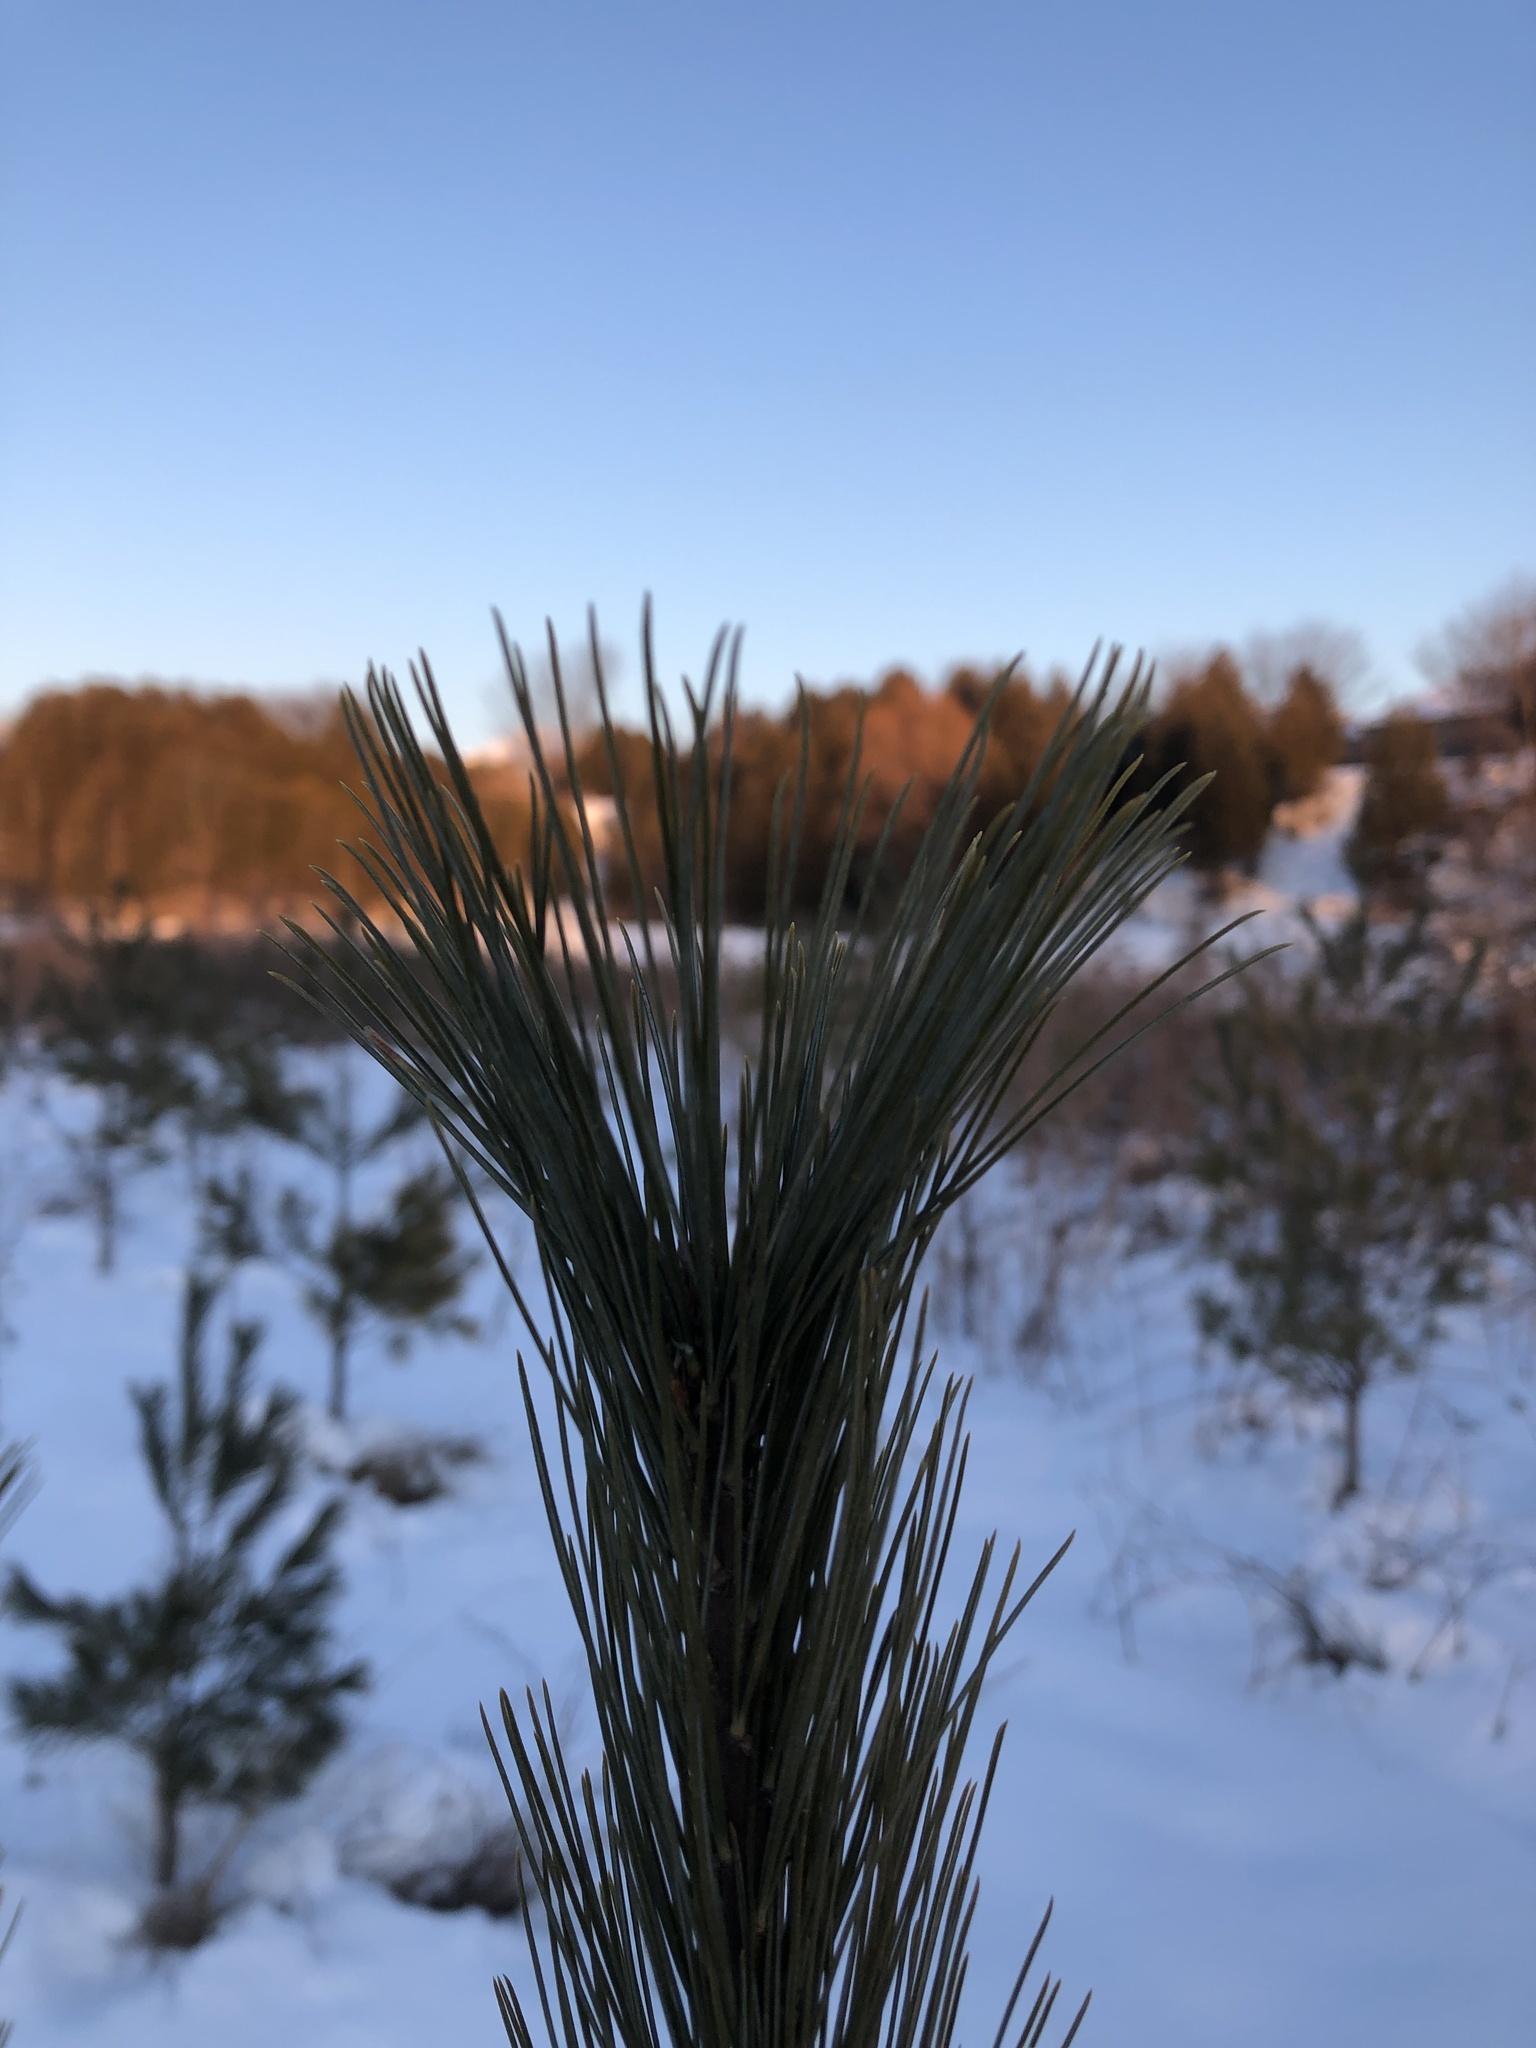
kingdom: Plantae
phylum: Tracheophyta
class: Pinopsida
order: Pinales
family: Pinaceae
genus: Pinus
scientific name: Pinus strobus
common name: Weymouth pine
